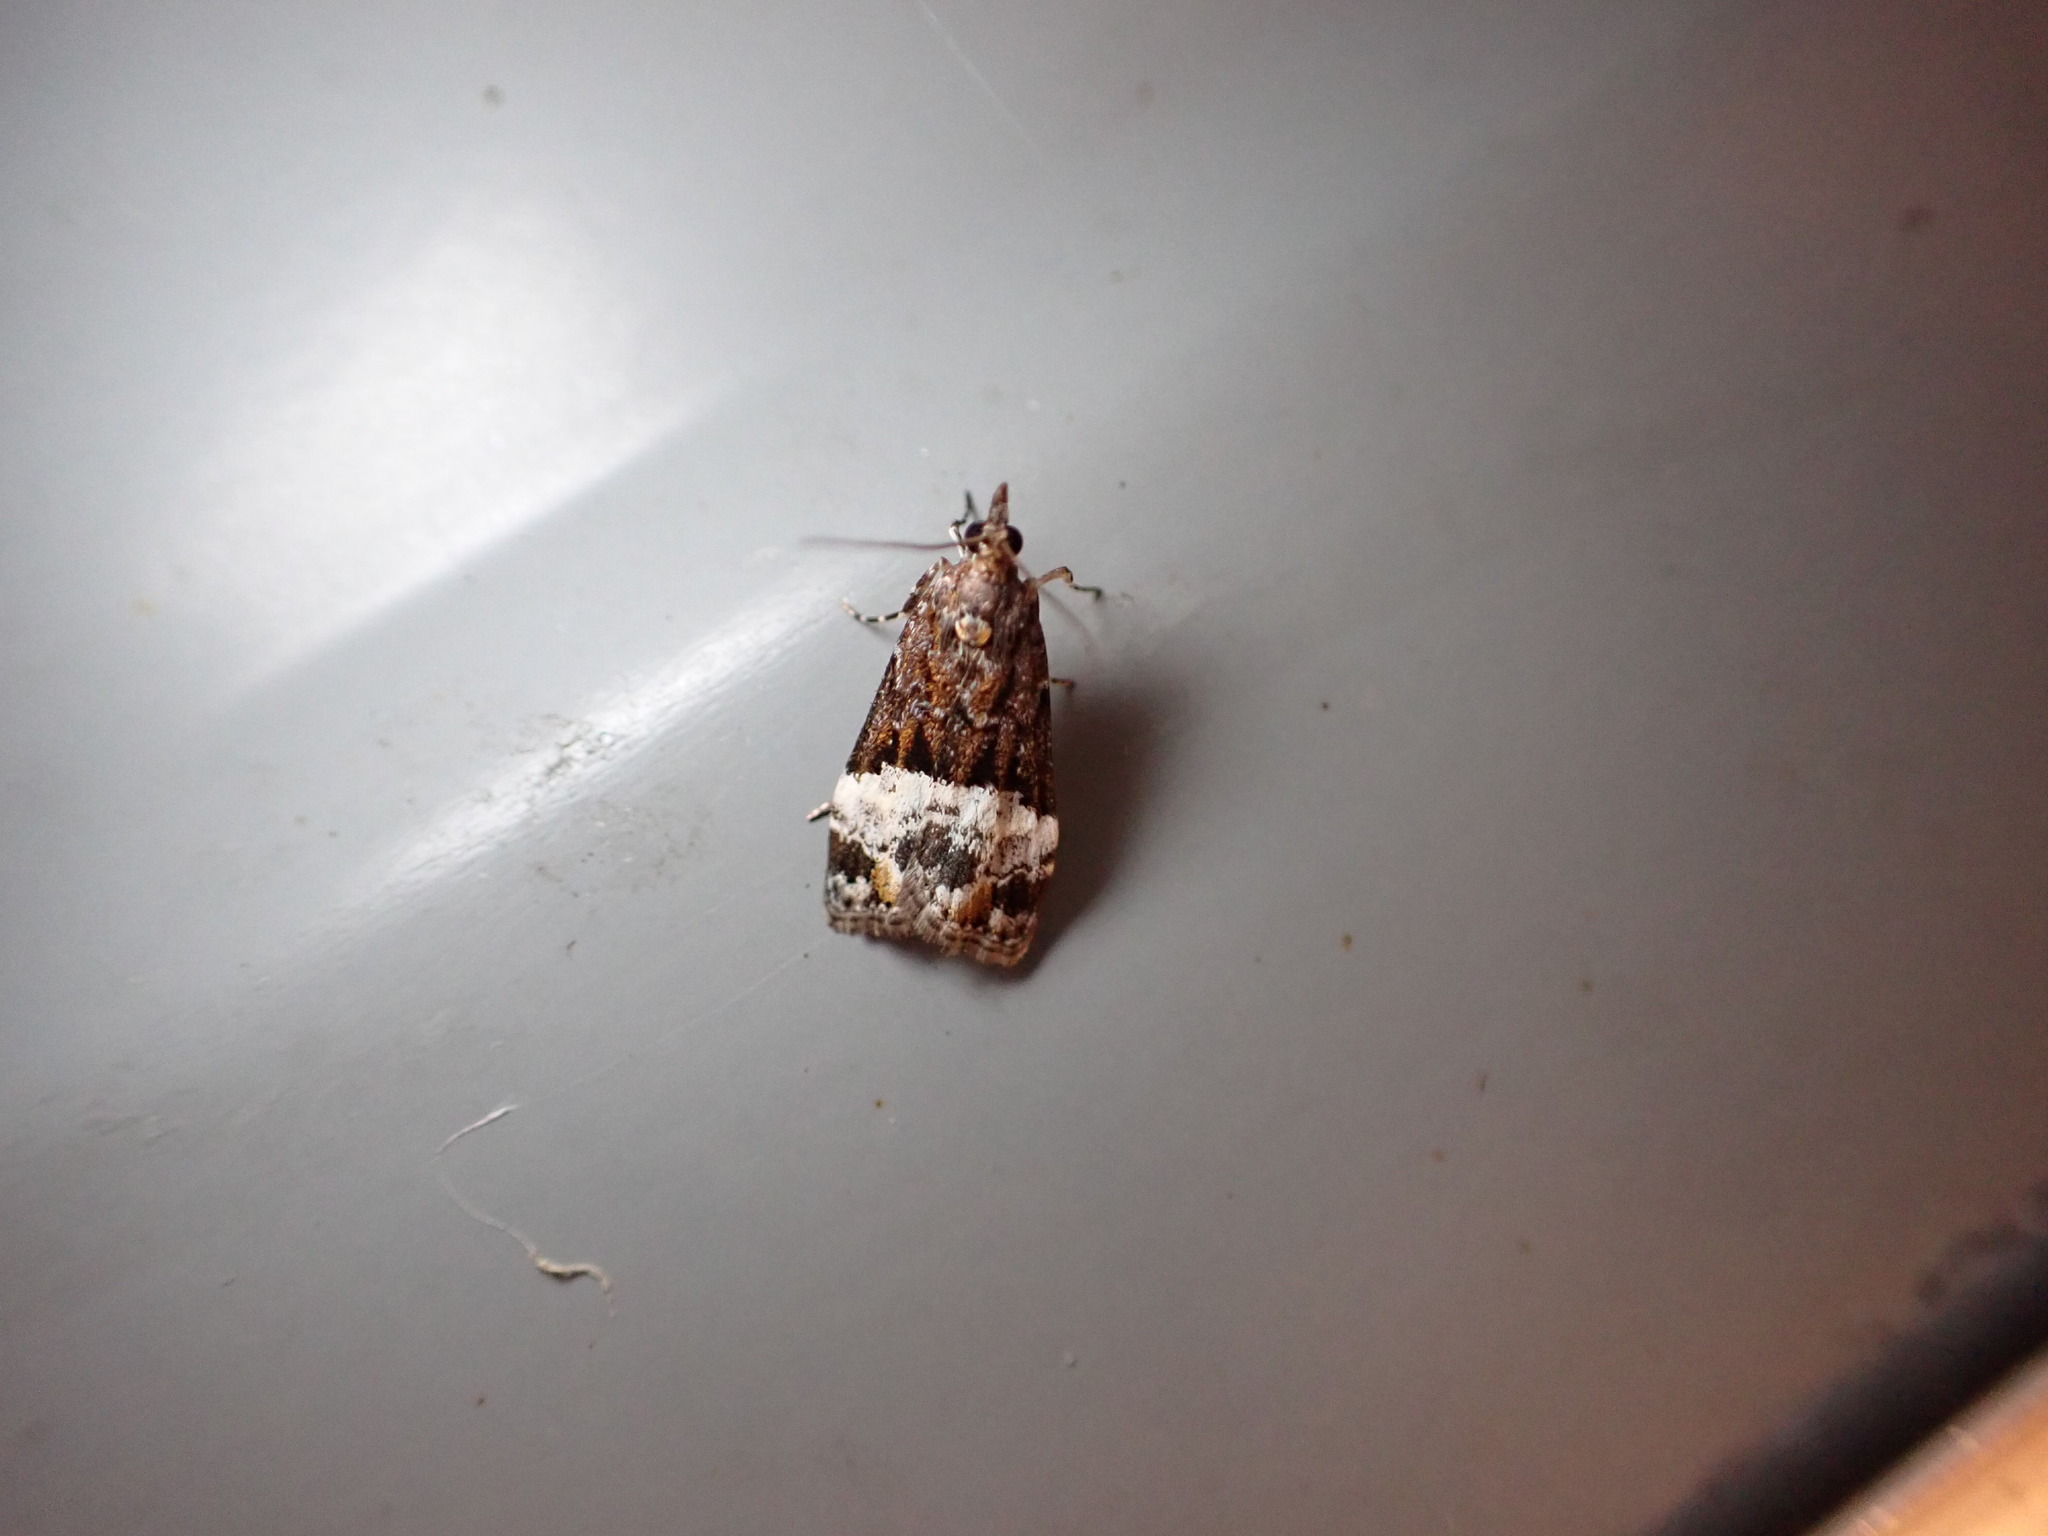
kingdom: Animalia
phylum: Arthropoda
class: Insecta
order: Lepidoptera
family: Crambidae
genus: Scoparia
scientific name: Scoparia minusculalis
